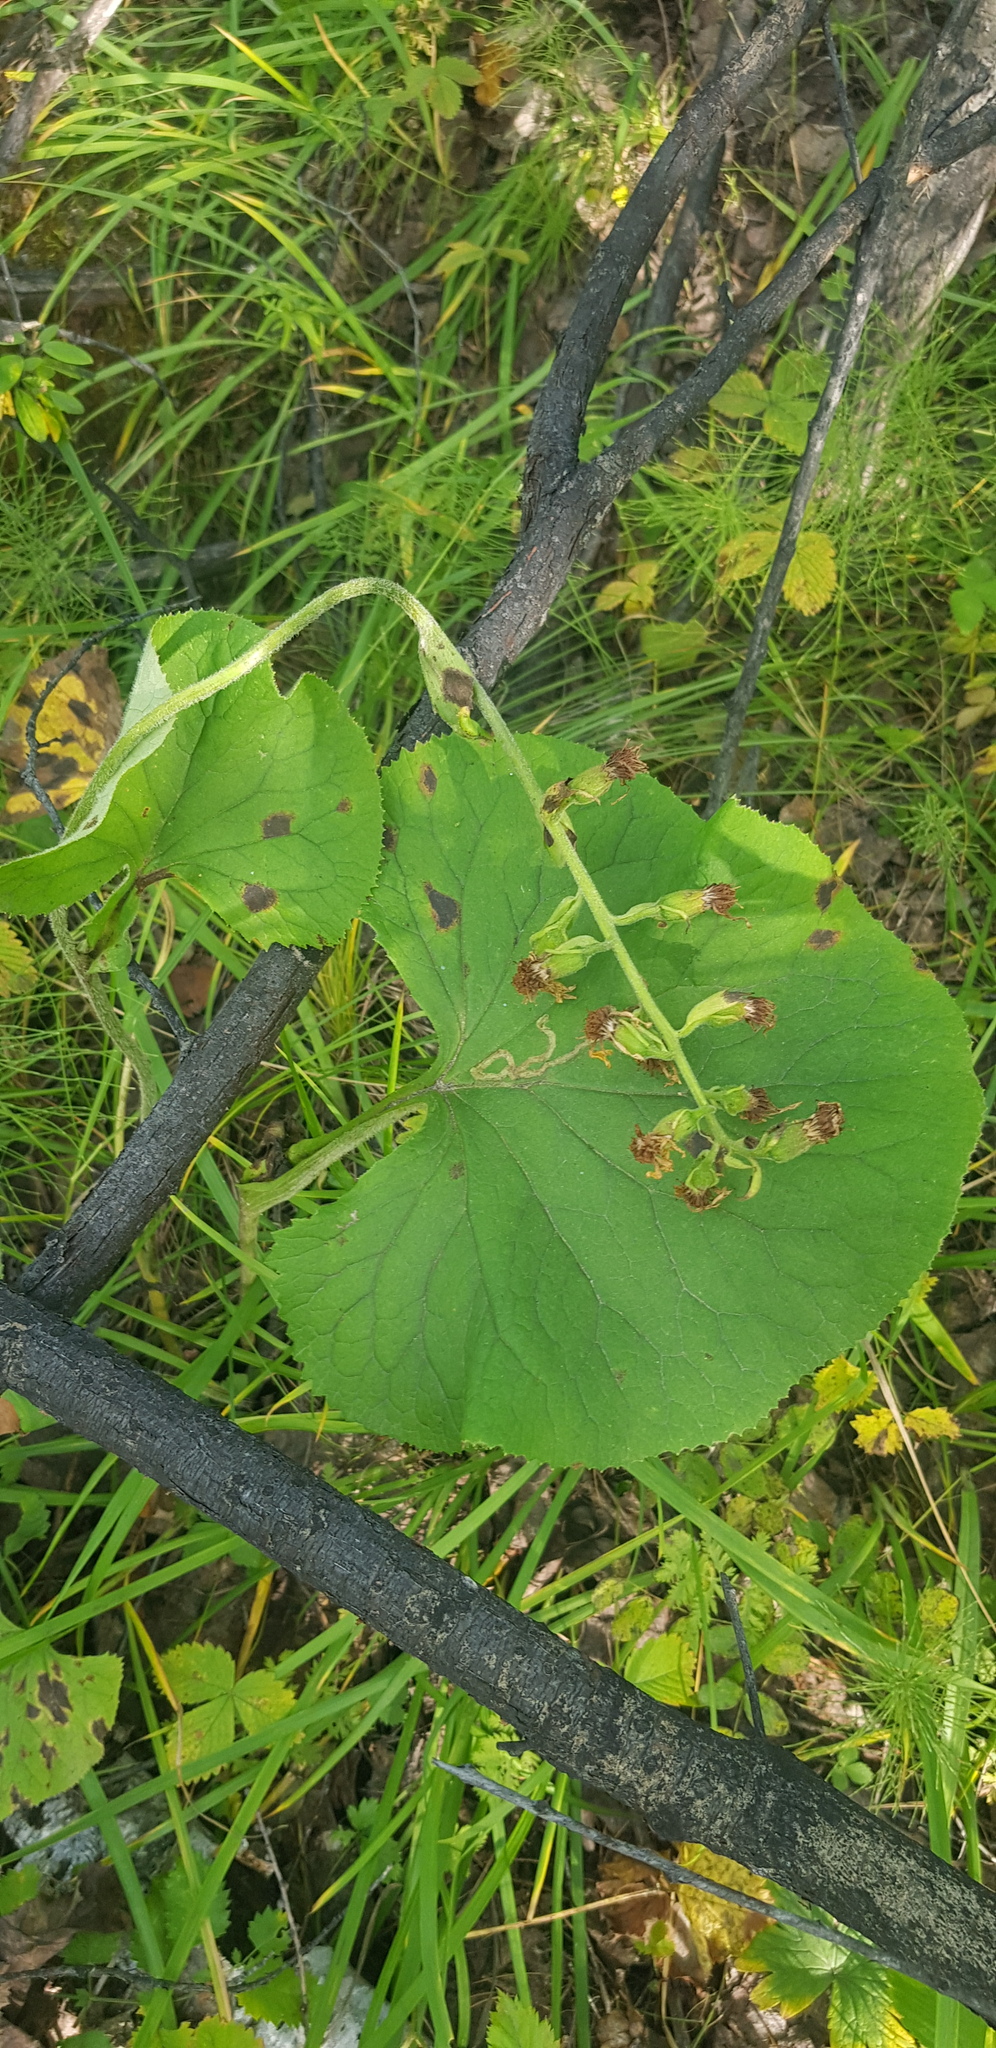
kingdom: Plantae
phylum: Tracheophyta
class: Magnoliopsida
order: Asterales
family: Asteraceae
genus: Ligularia
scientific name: Ligularia sibirica
